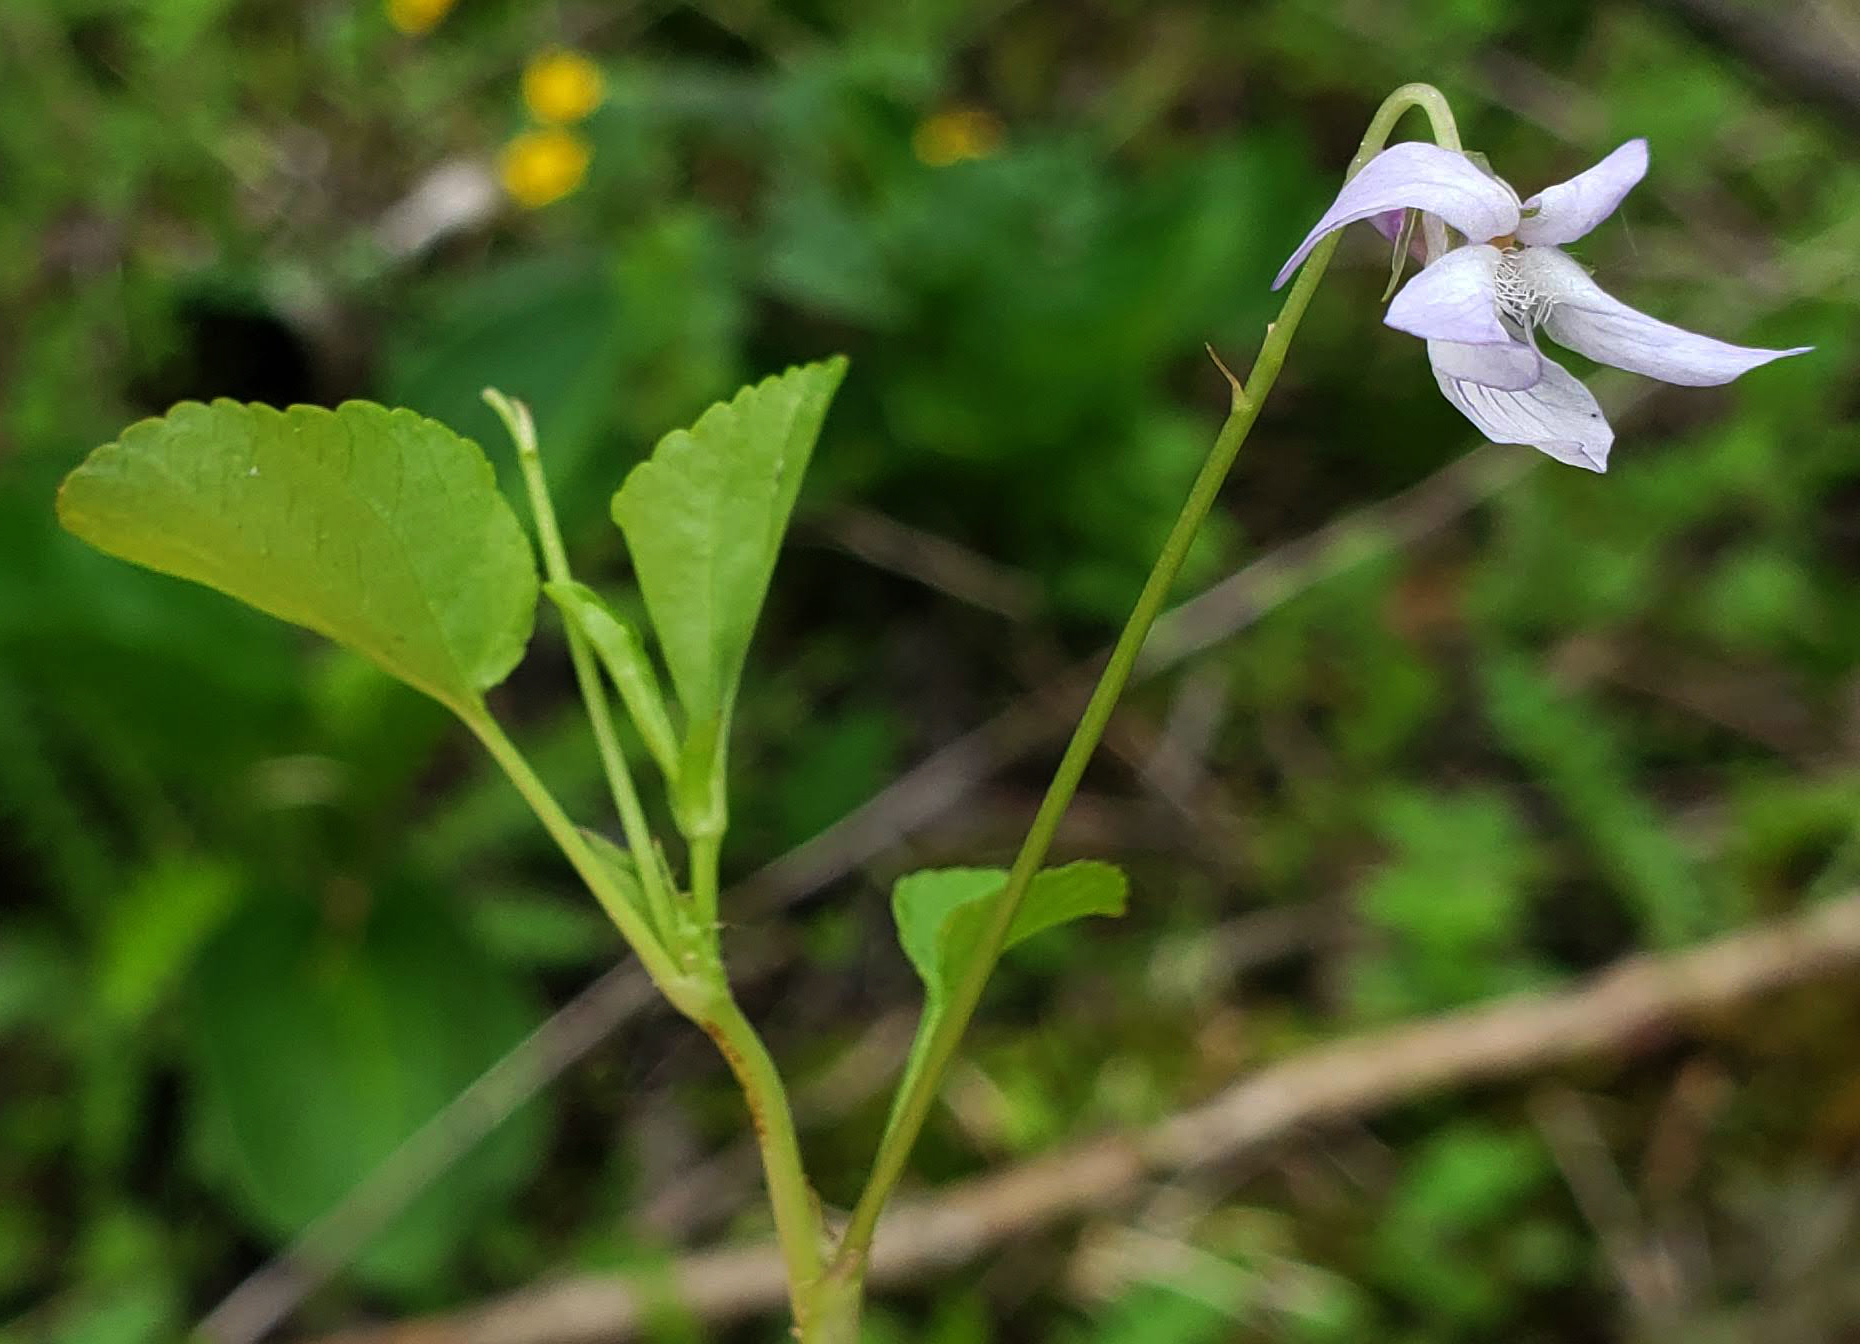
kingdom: Plantae
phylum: Tracheophyta
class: Magnoliopsida
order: Malpighiales
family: Violaceae
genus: Viola
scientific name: Viola labradorica
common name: Labrador violet
